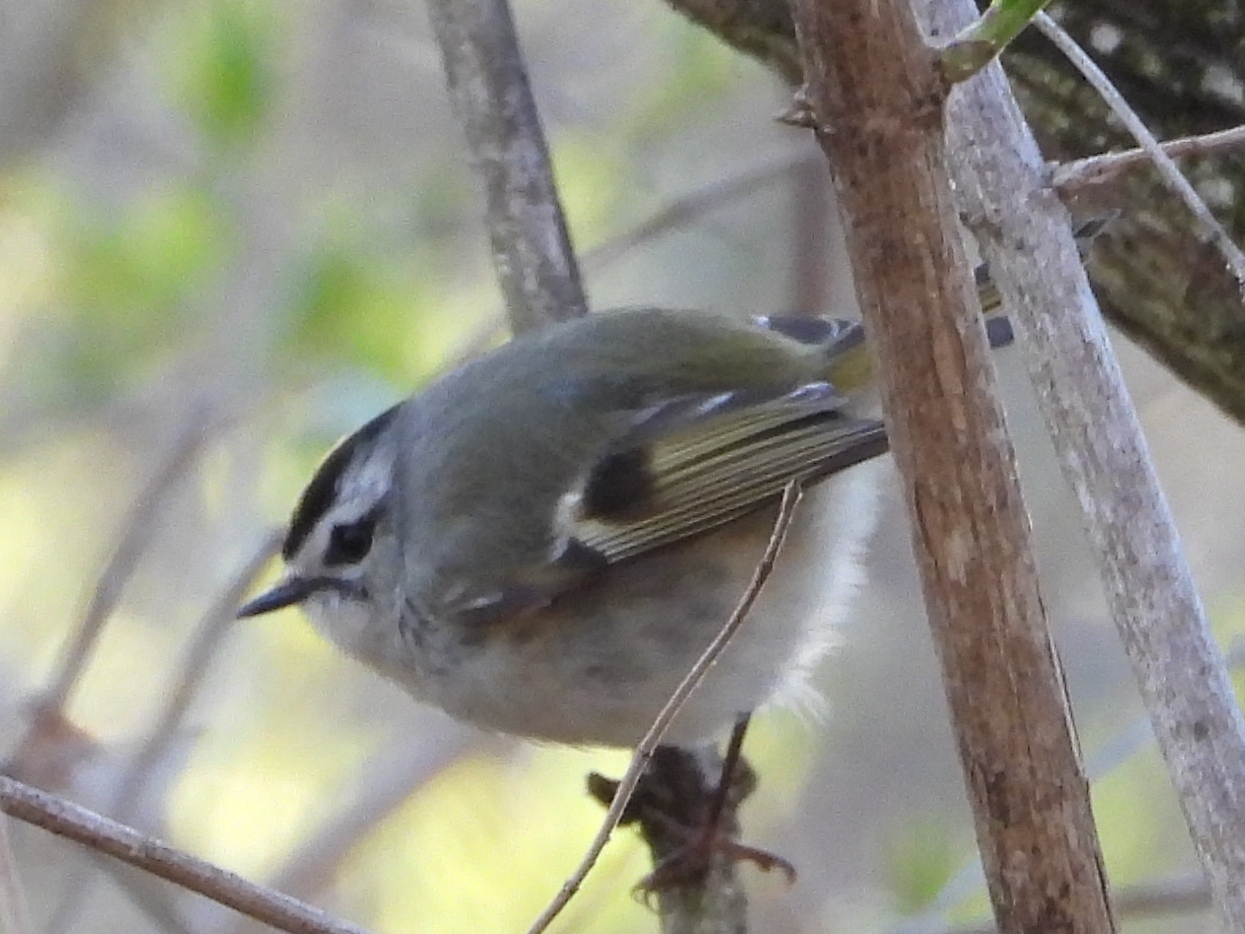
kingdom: Animalia
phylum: Chordata
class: Aves
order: Passeriformes
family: Regulidae
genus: Regulus
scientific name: Regulus satrapa
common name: Golden-crowned kinglet
